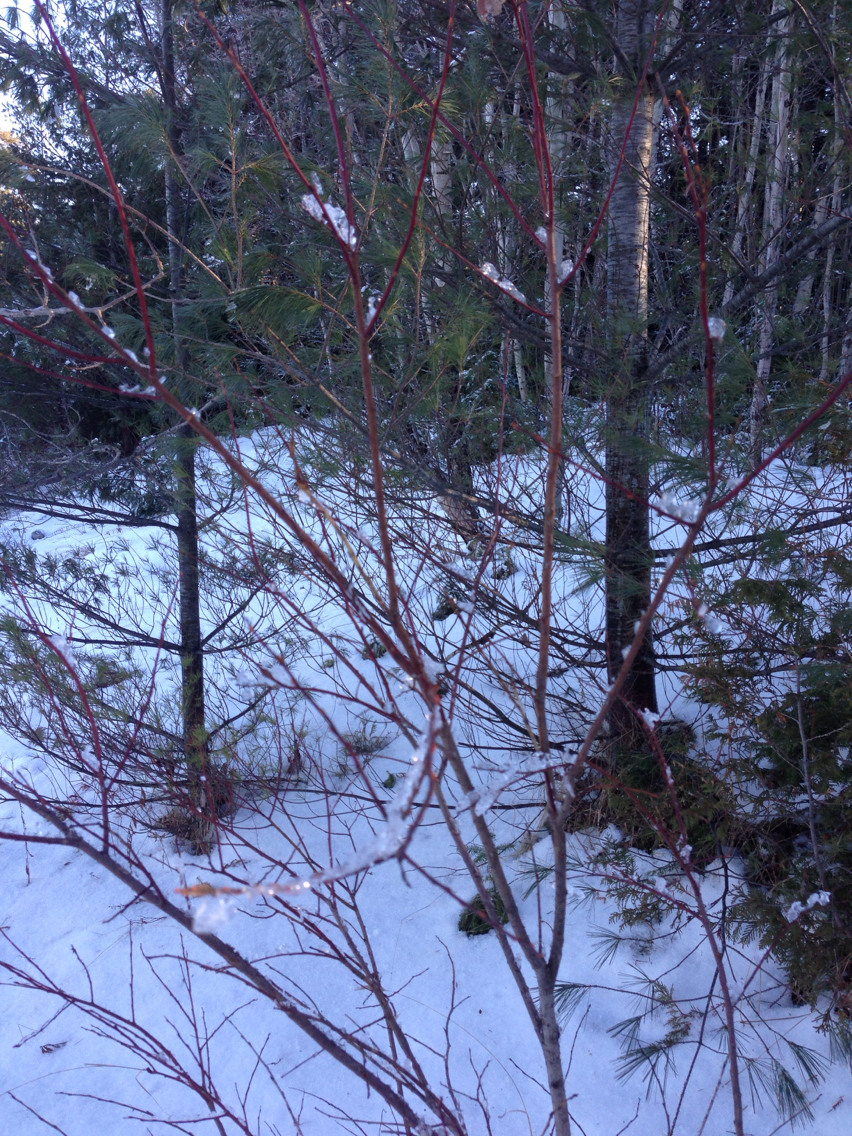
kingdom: Plantae
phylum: Tracheophyta
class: Magnoliopsida
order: Sapindales
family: Sapindaceae
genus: Acer
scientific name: Acer rubrum
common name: Red maple
